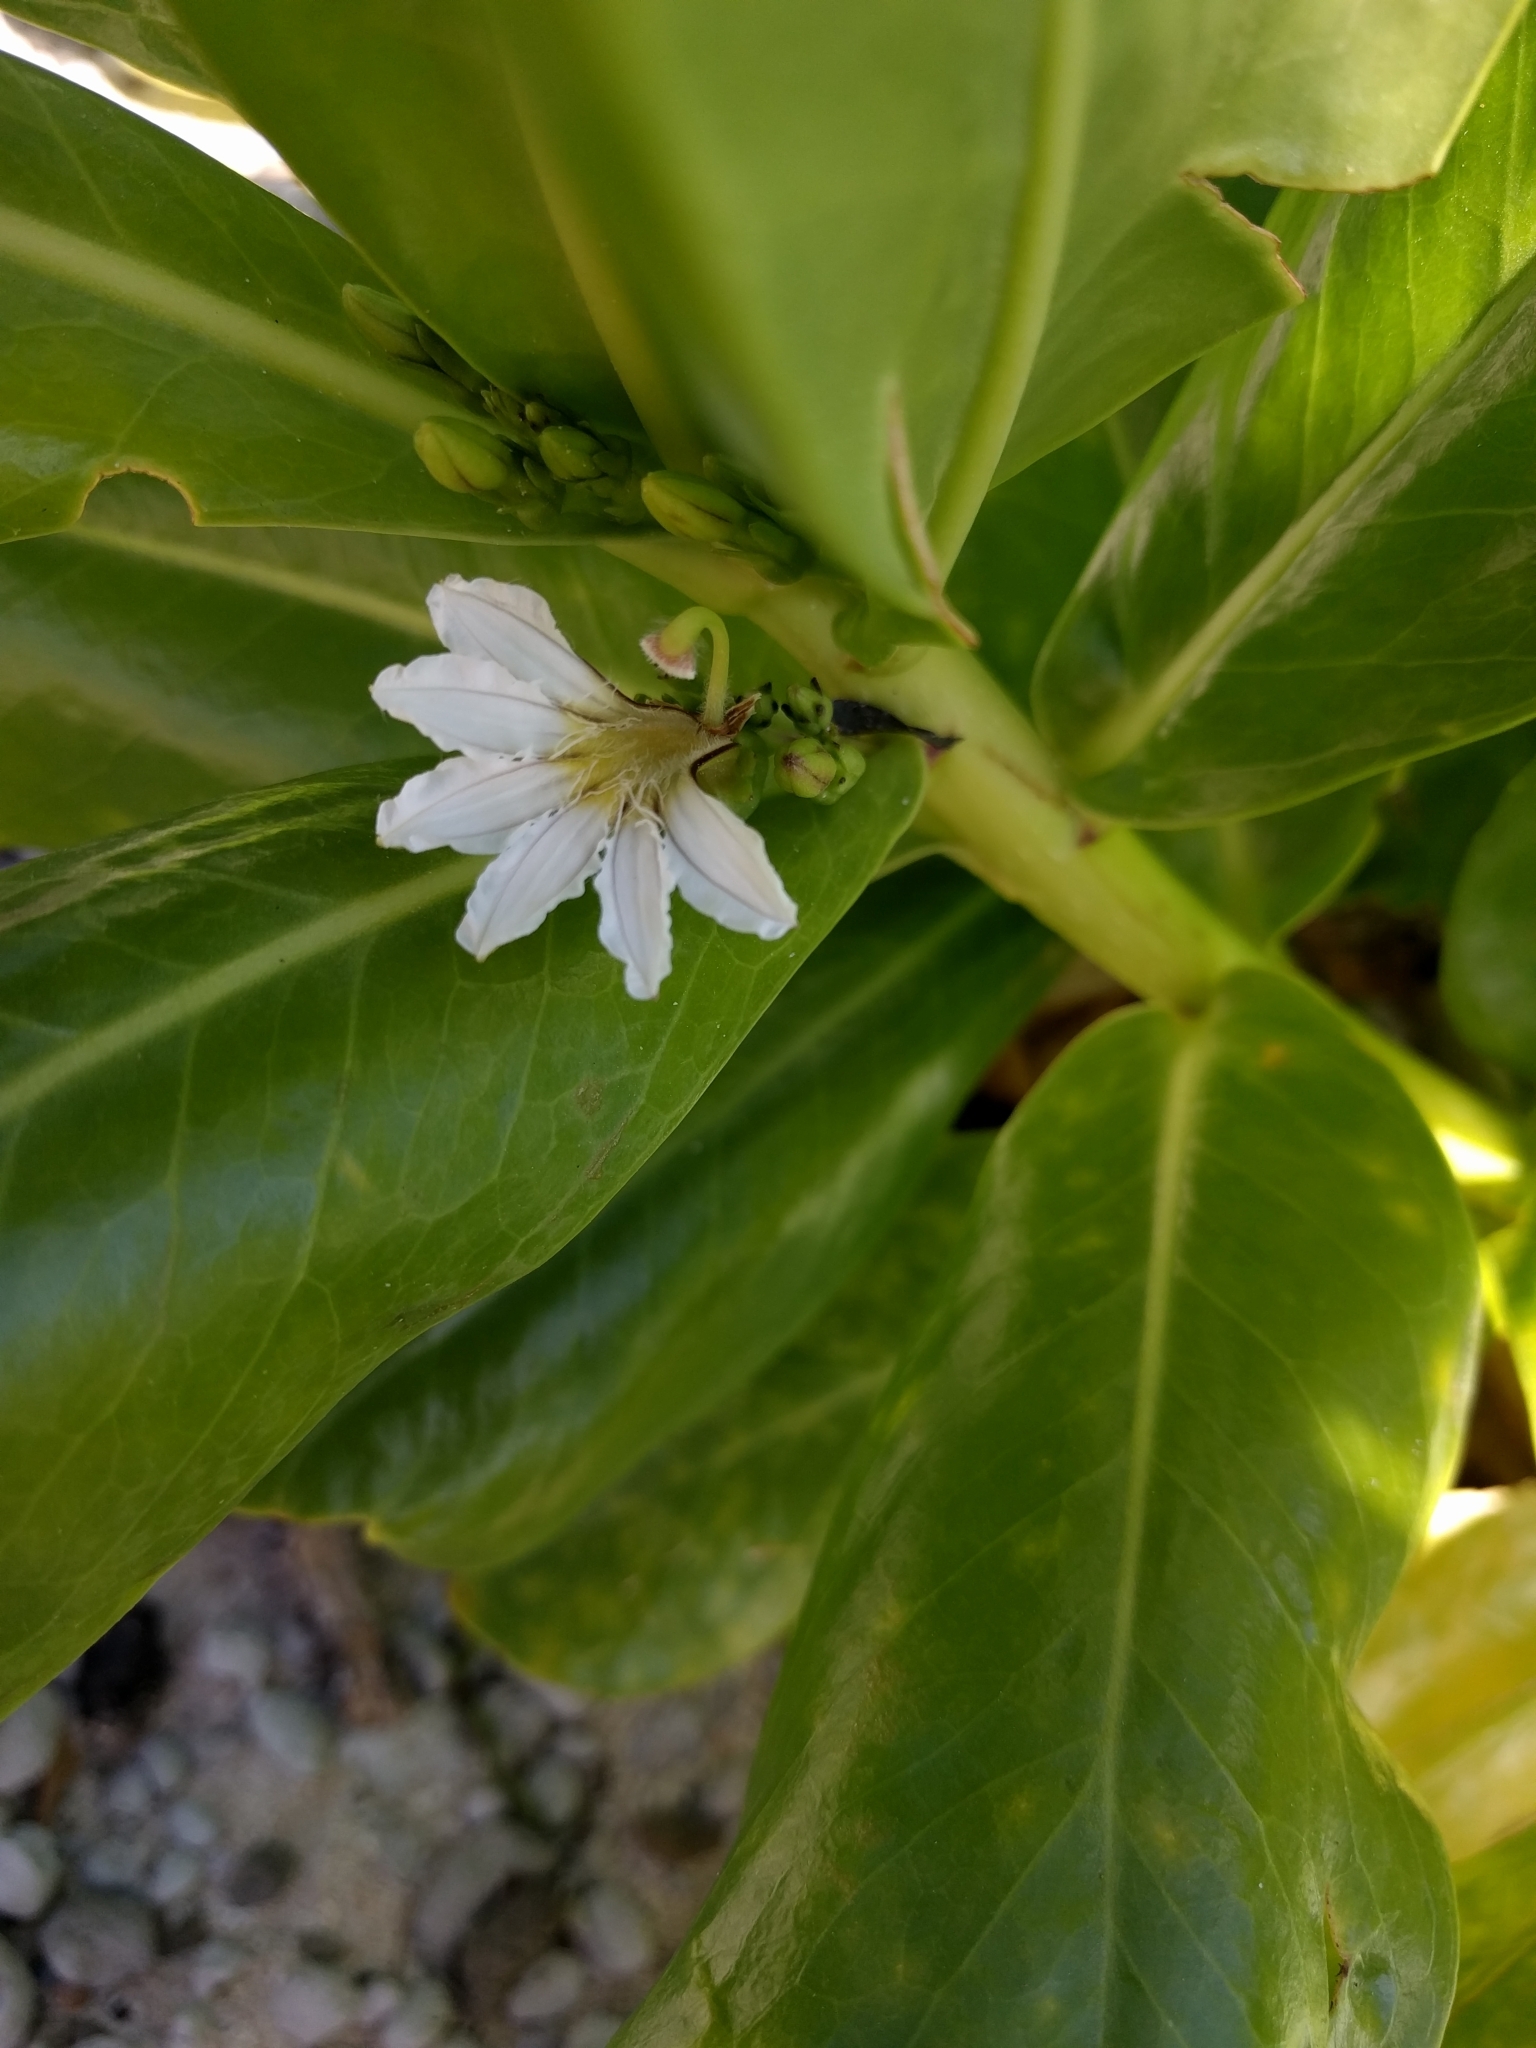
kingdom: Plantae
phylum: Tracheophyta
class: Magnoliopsida
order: Asterales
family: Goodeniaceae
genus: Scaevola
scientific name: Scaevola taccada
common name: Sea lettucetree
